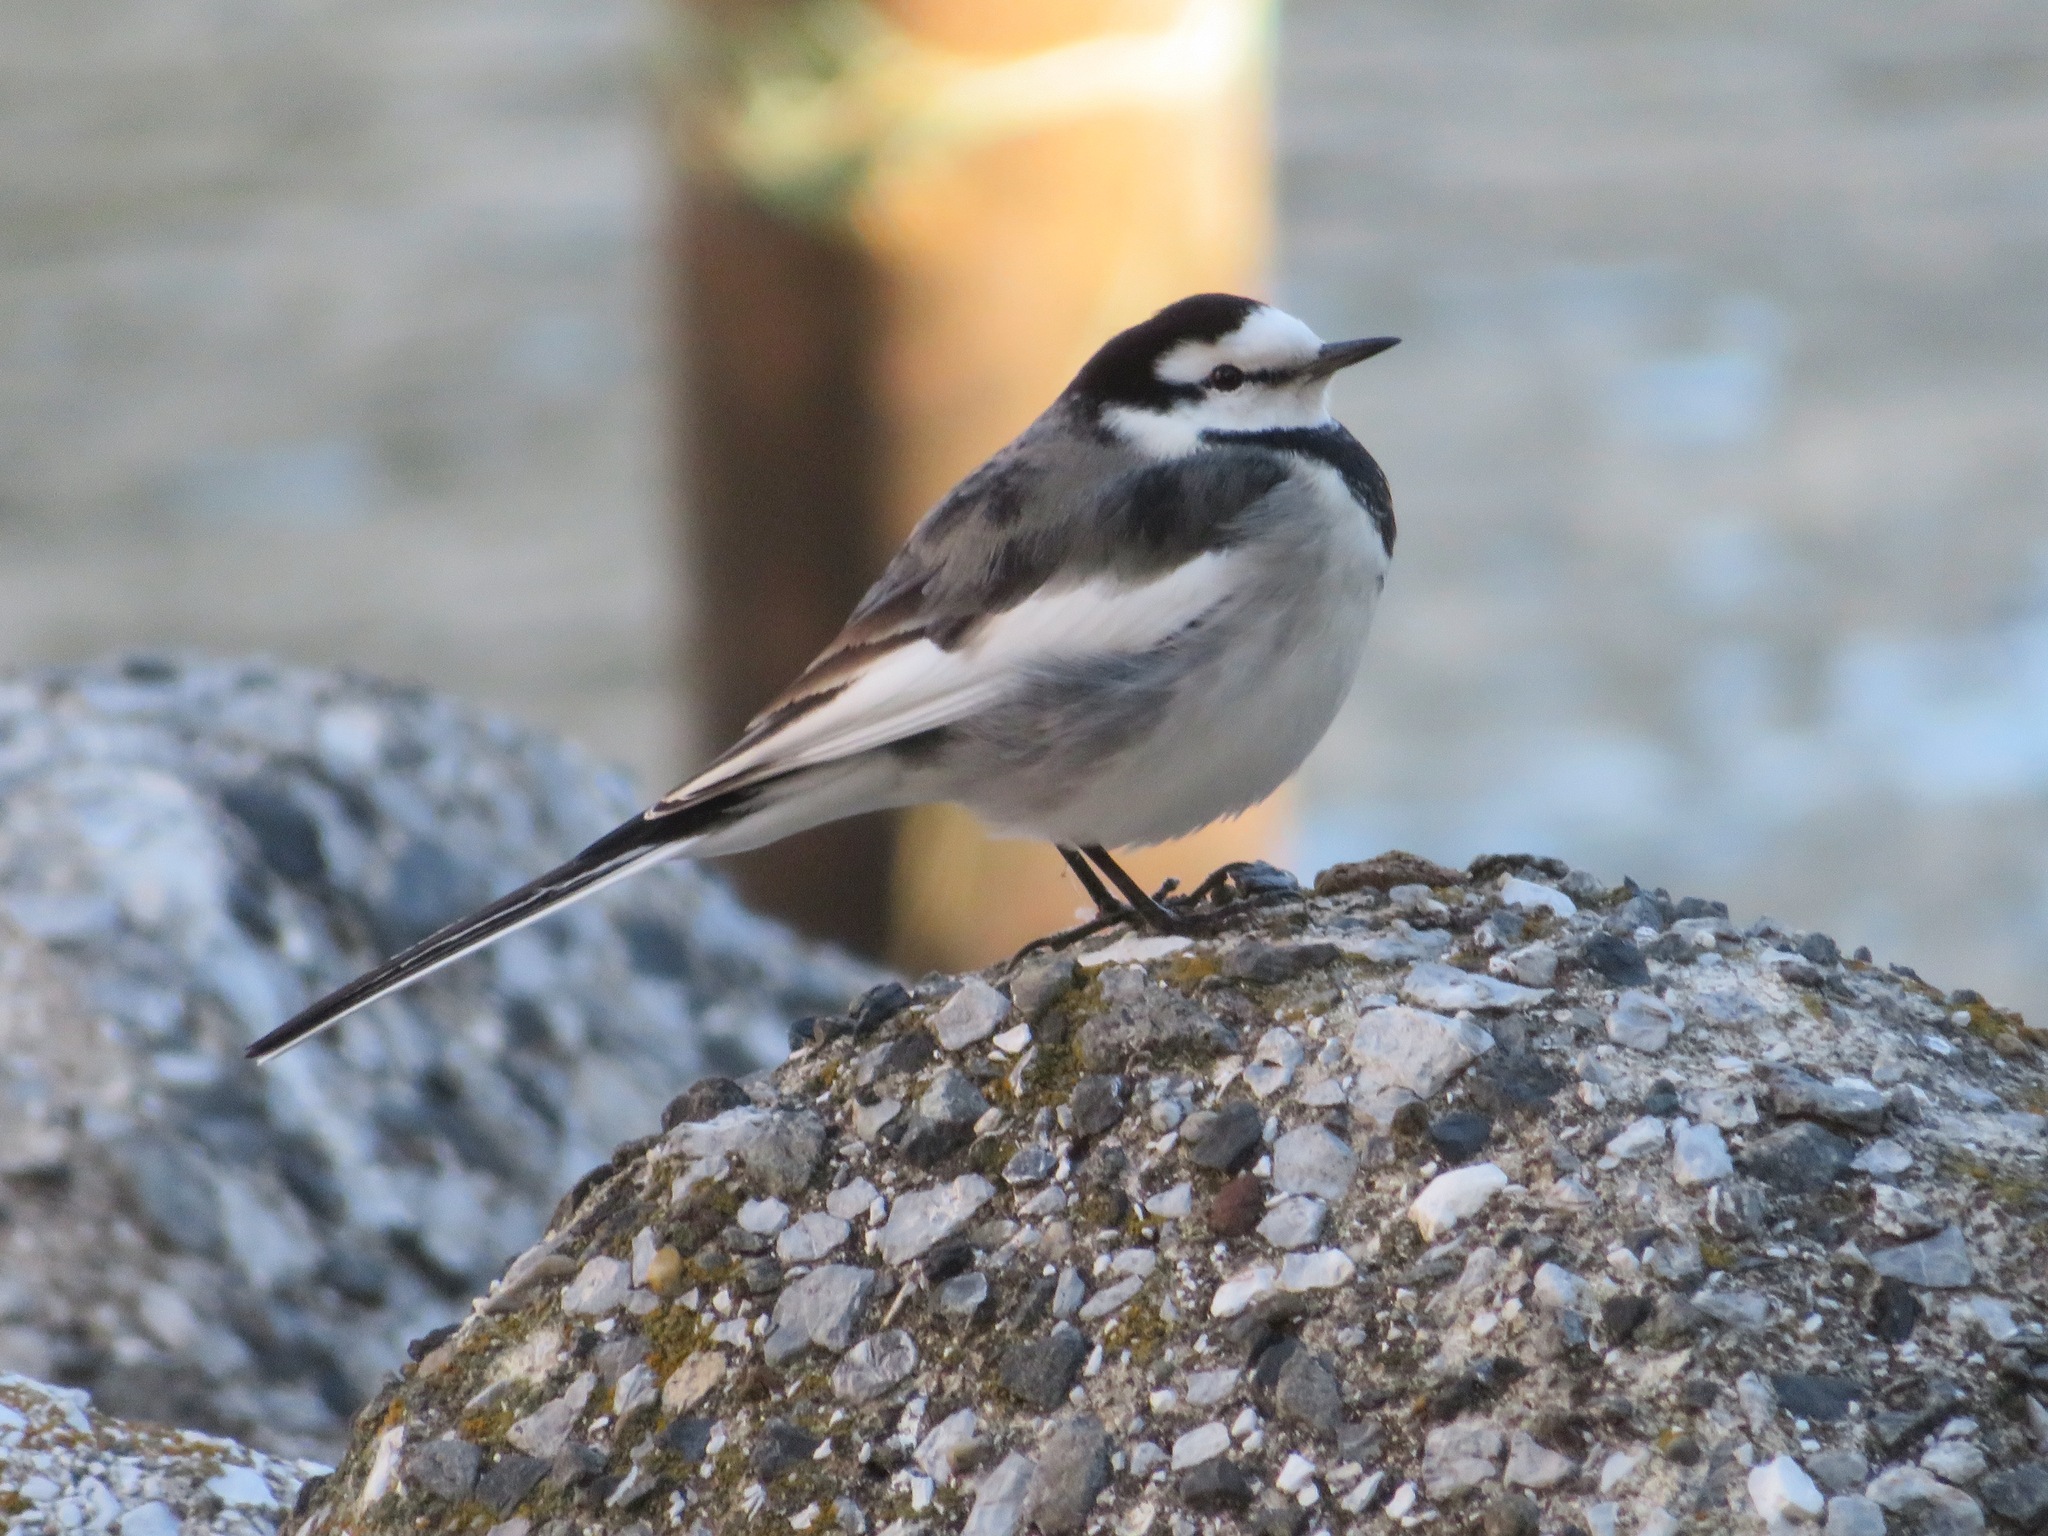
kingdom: Animalia
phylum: Chordata
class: Aves
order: Passeriformes
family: Motacillidae
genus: Motacilla
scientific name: Motacilla alba
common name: White wagtail
